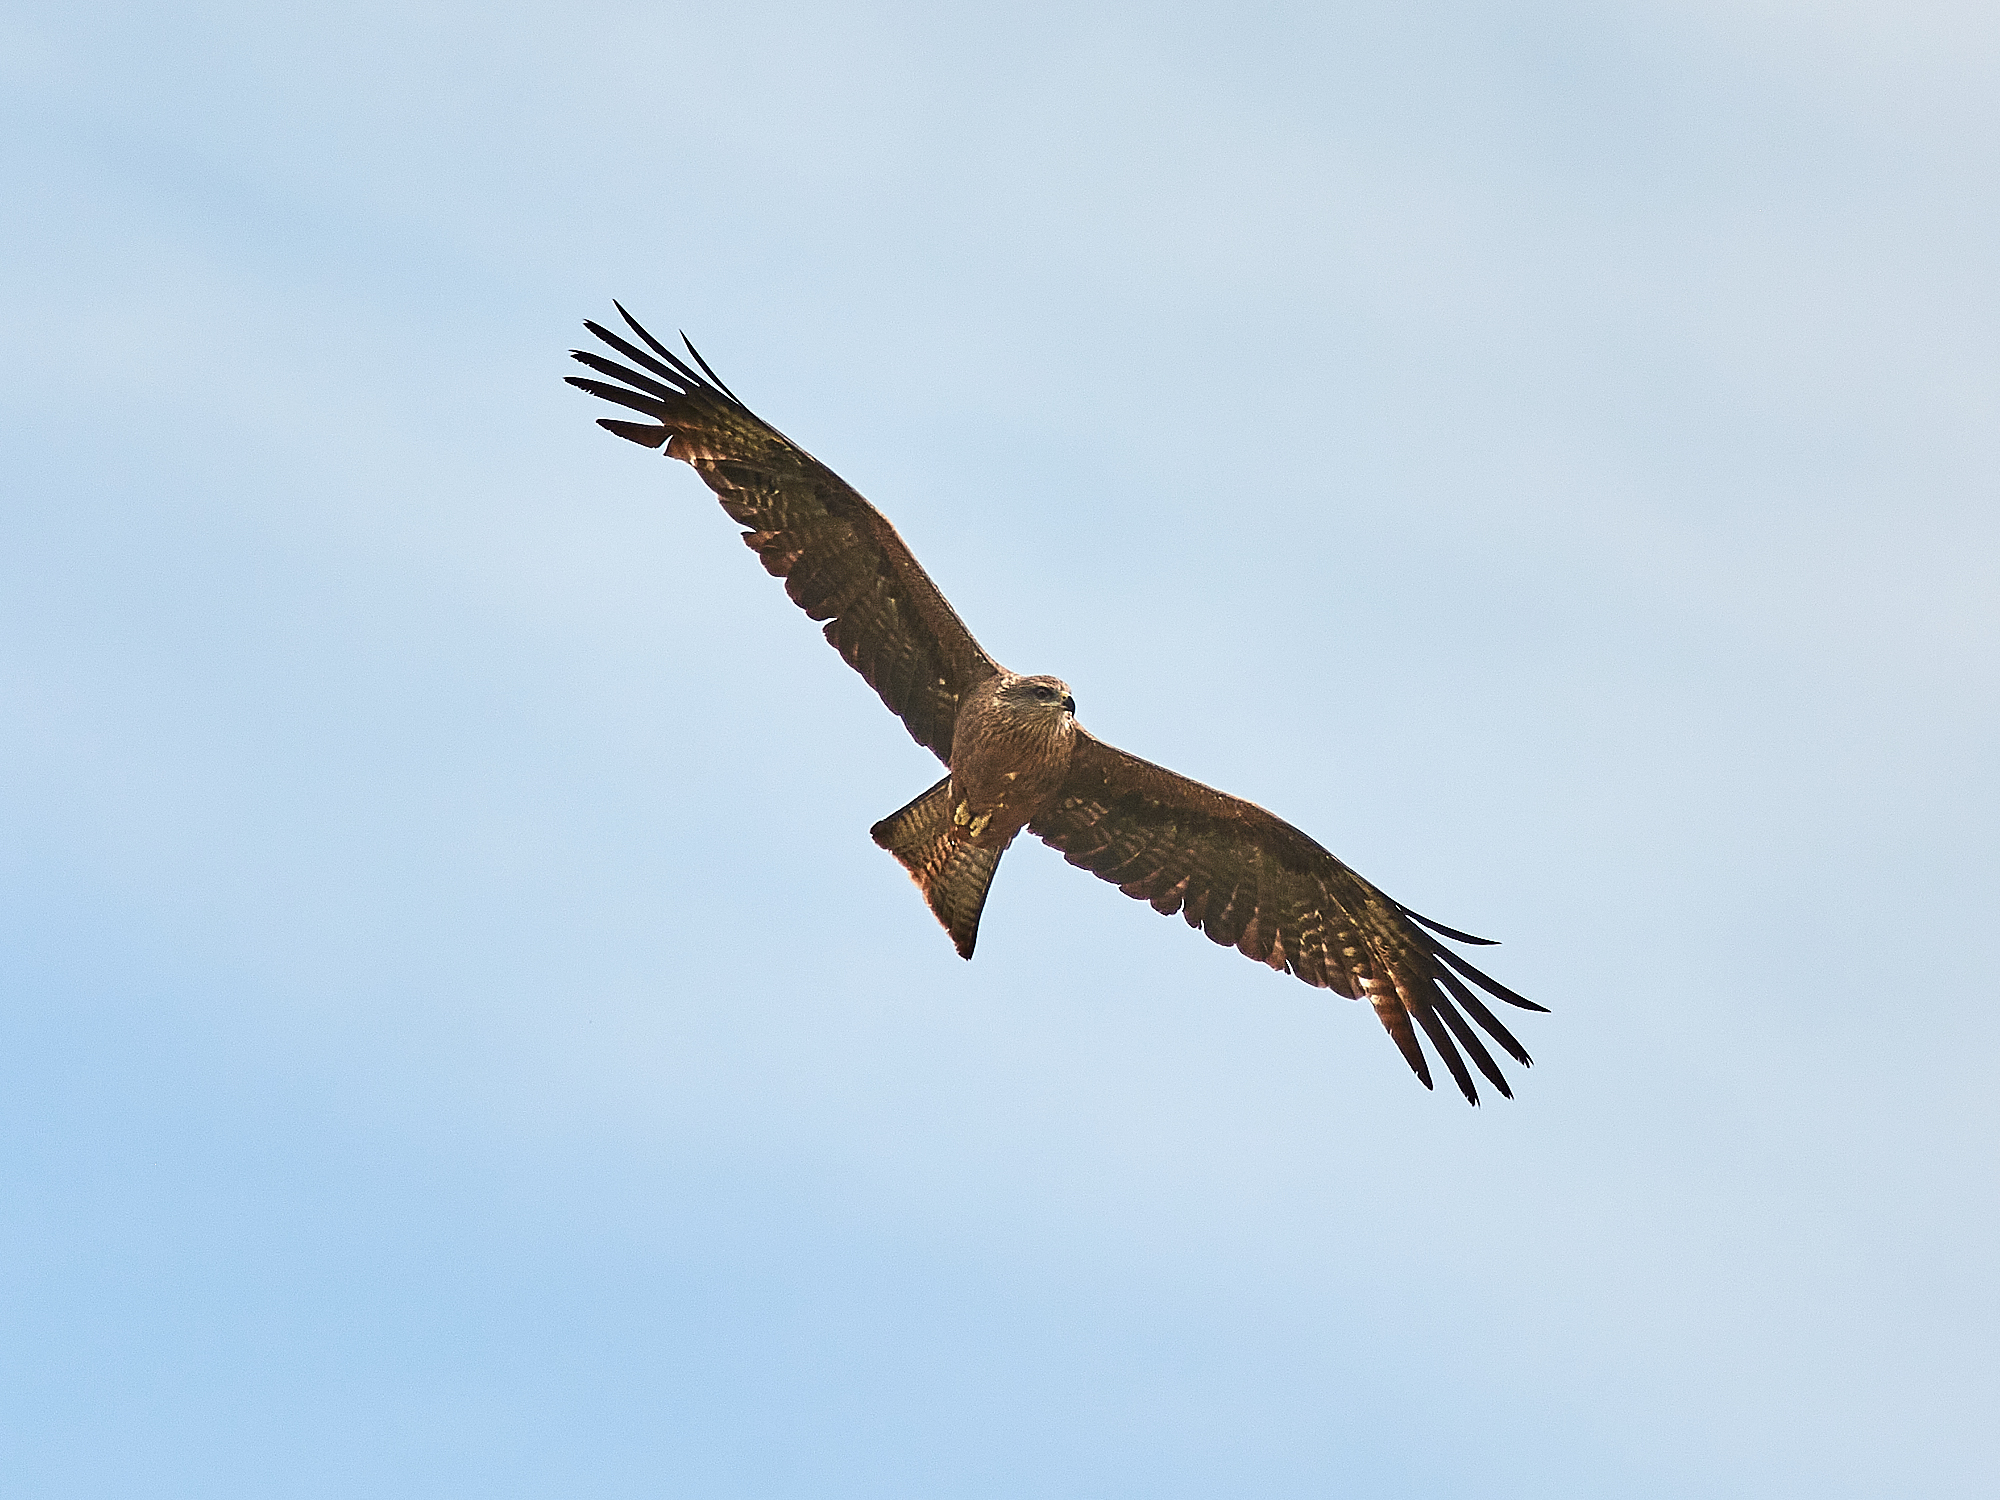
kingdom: Animalia
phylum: Chordata
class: Aves
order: Accipitriformes
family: Accipitridae
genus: Milvus
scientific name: Milvus migrans
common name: Black kite
